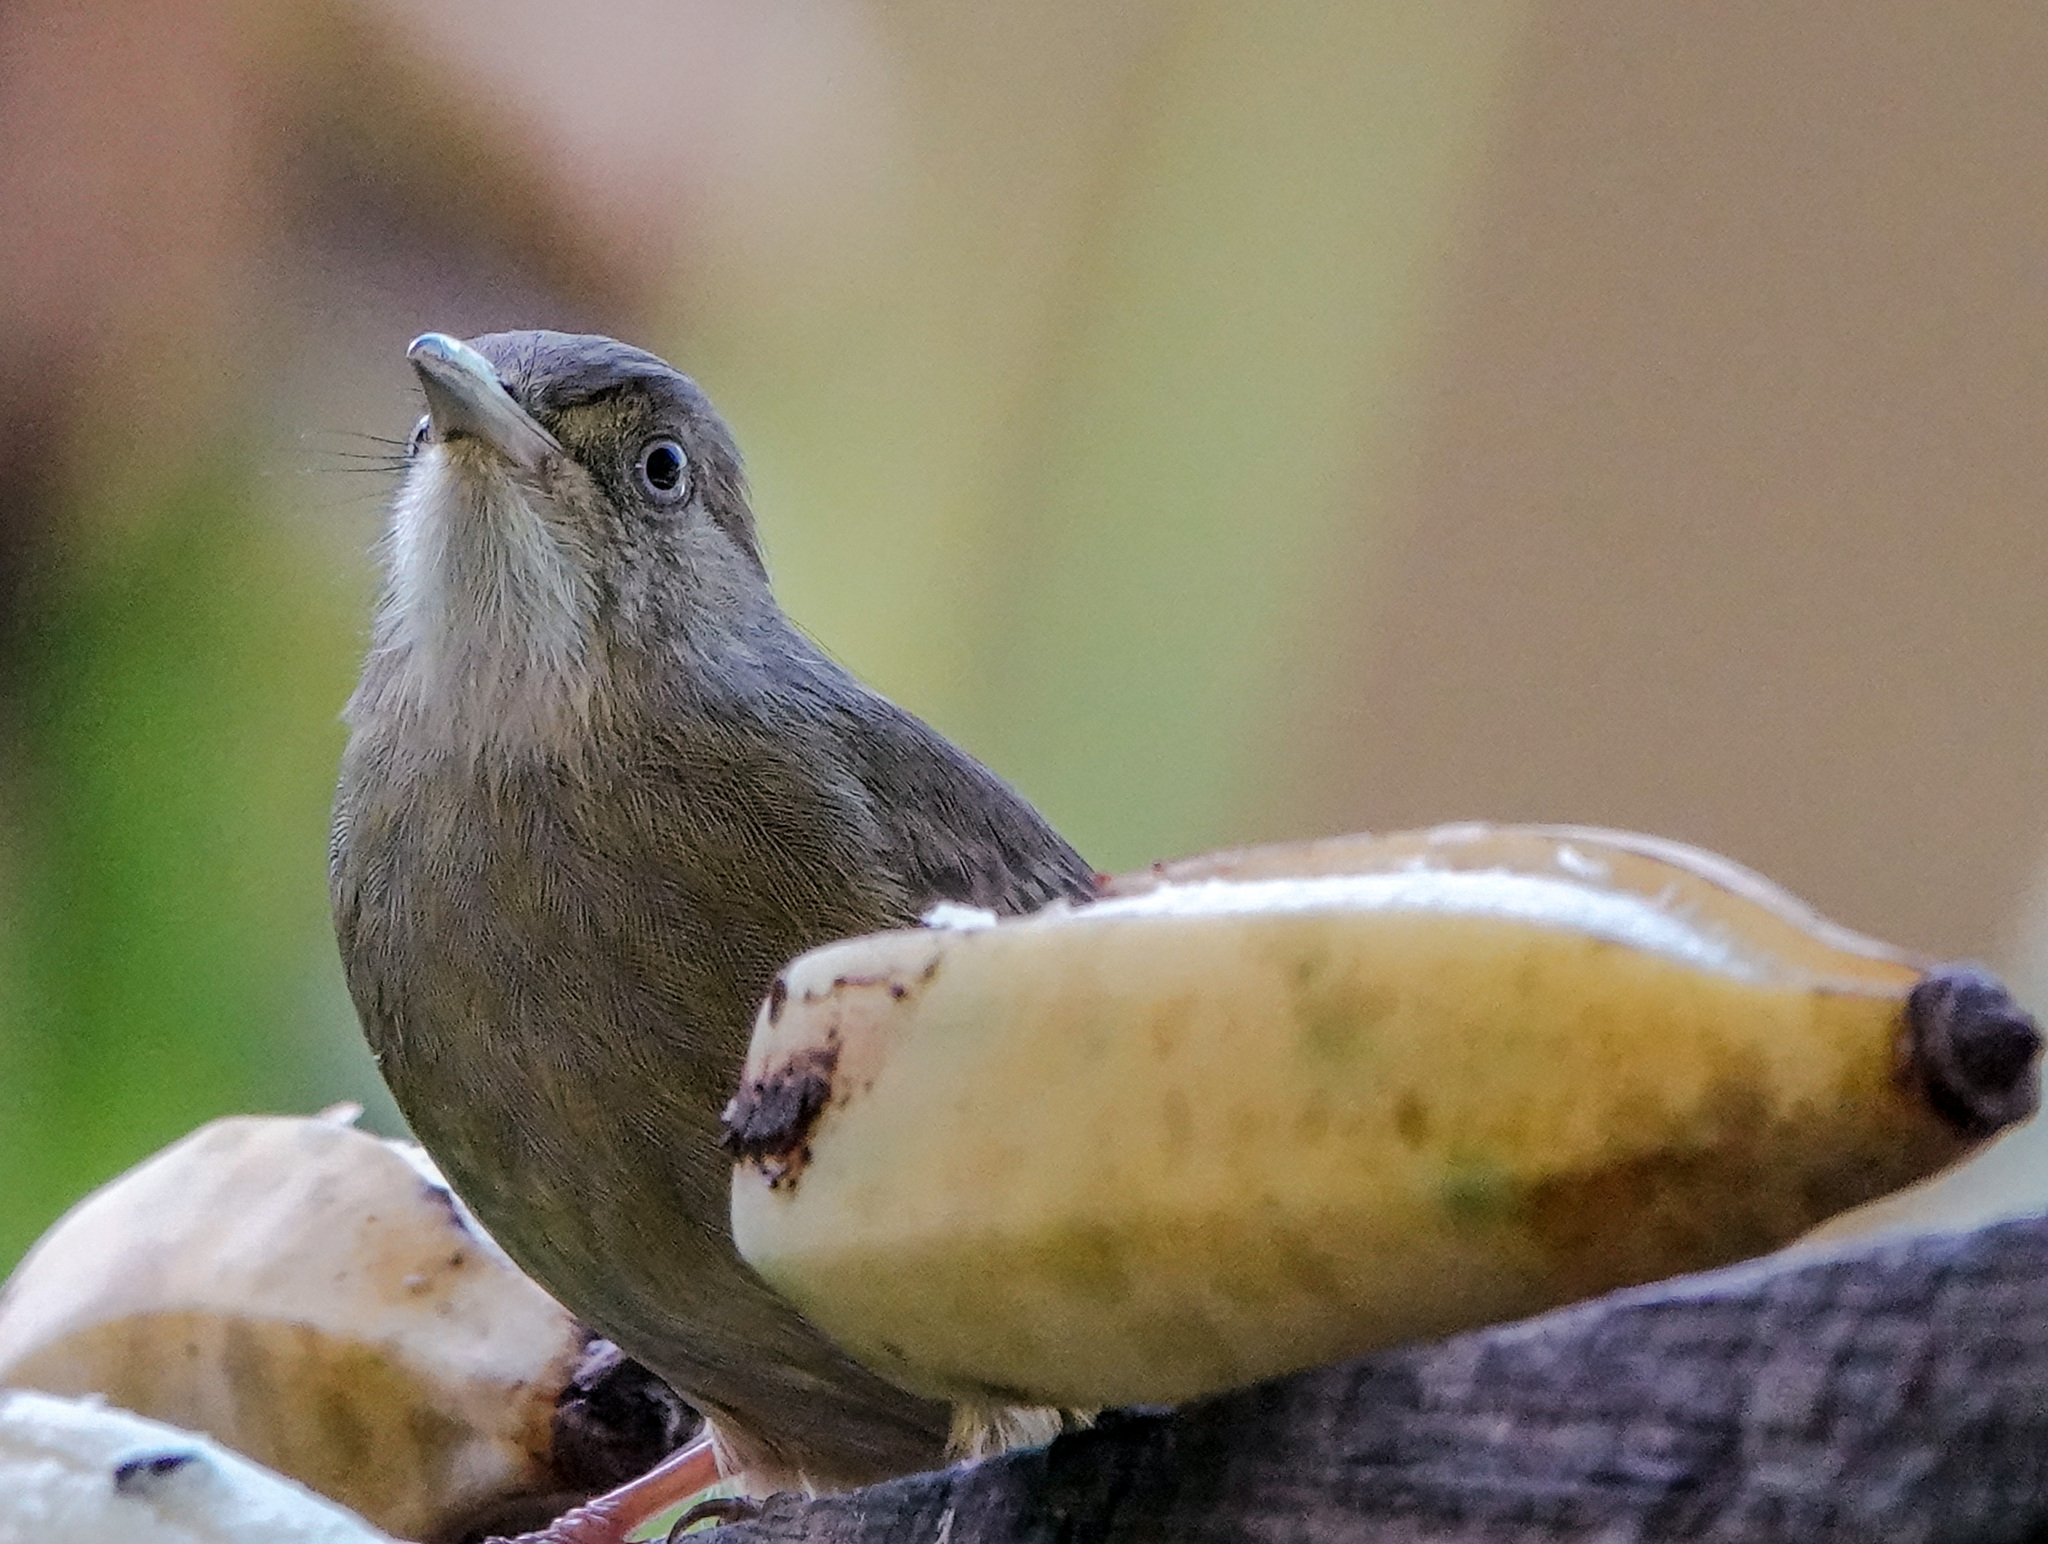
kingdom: Animalia
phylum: Chordata
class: Aves
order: Passeriformes
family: Pycnonotidae
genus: Iole
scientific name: Iole propinqua
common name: Grey-eyed bulbul
